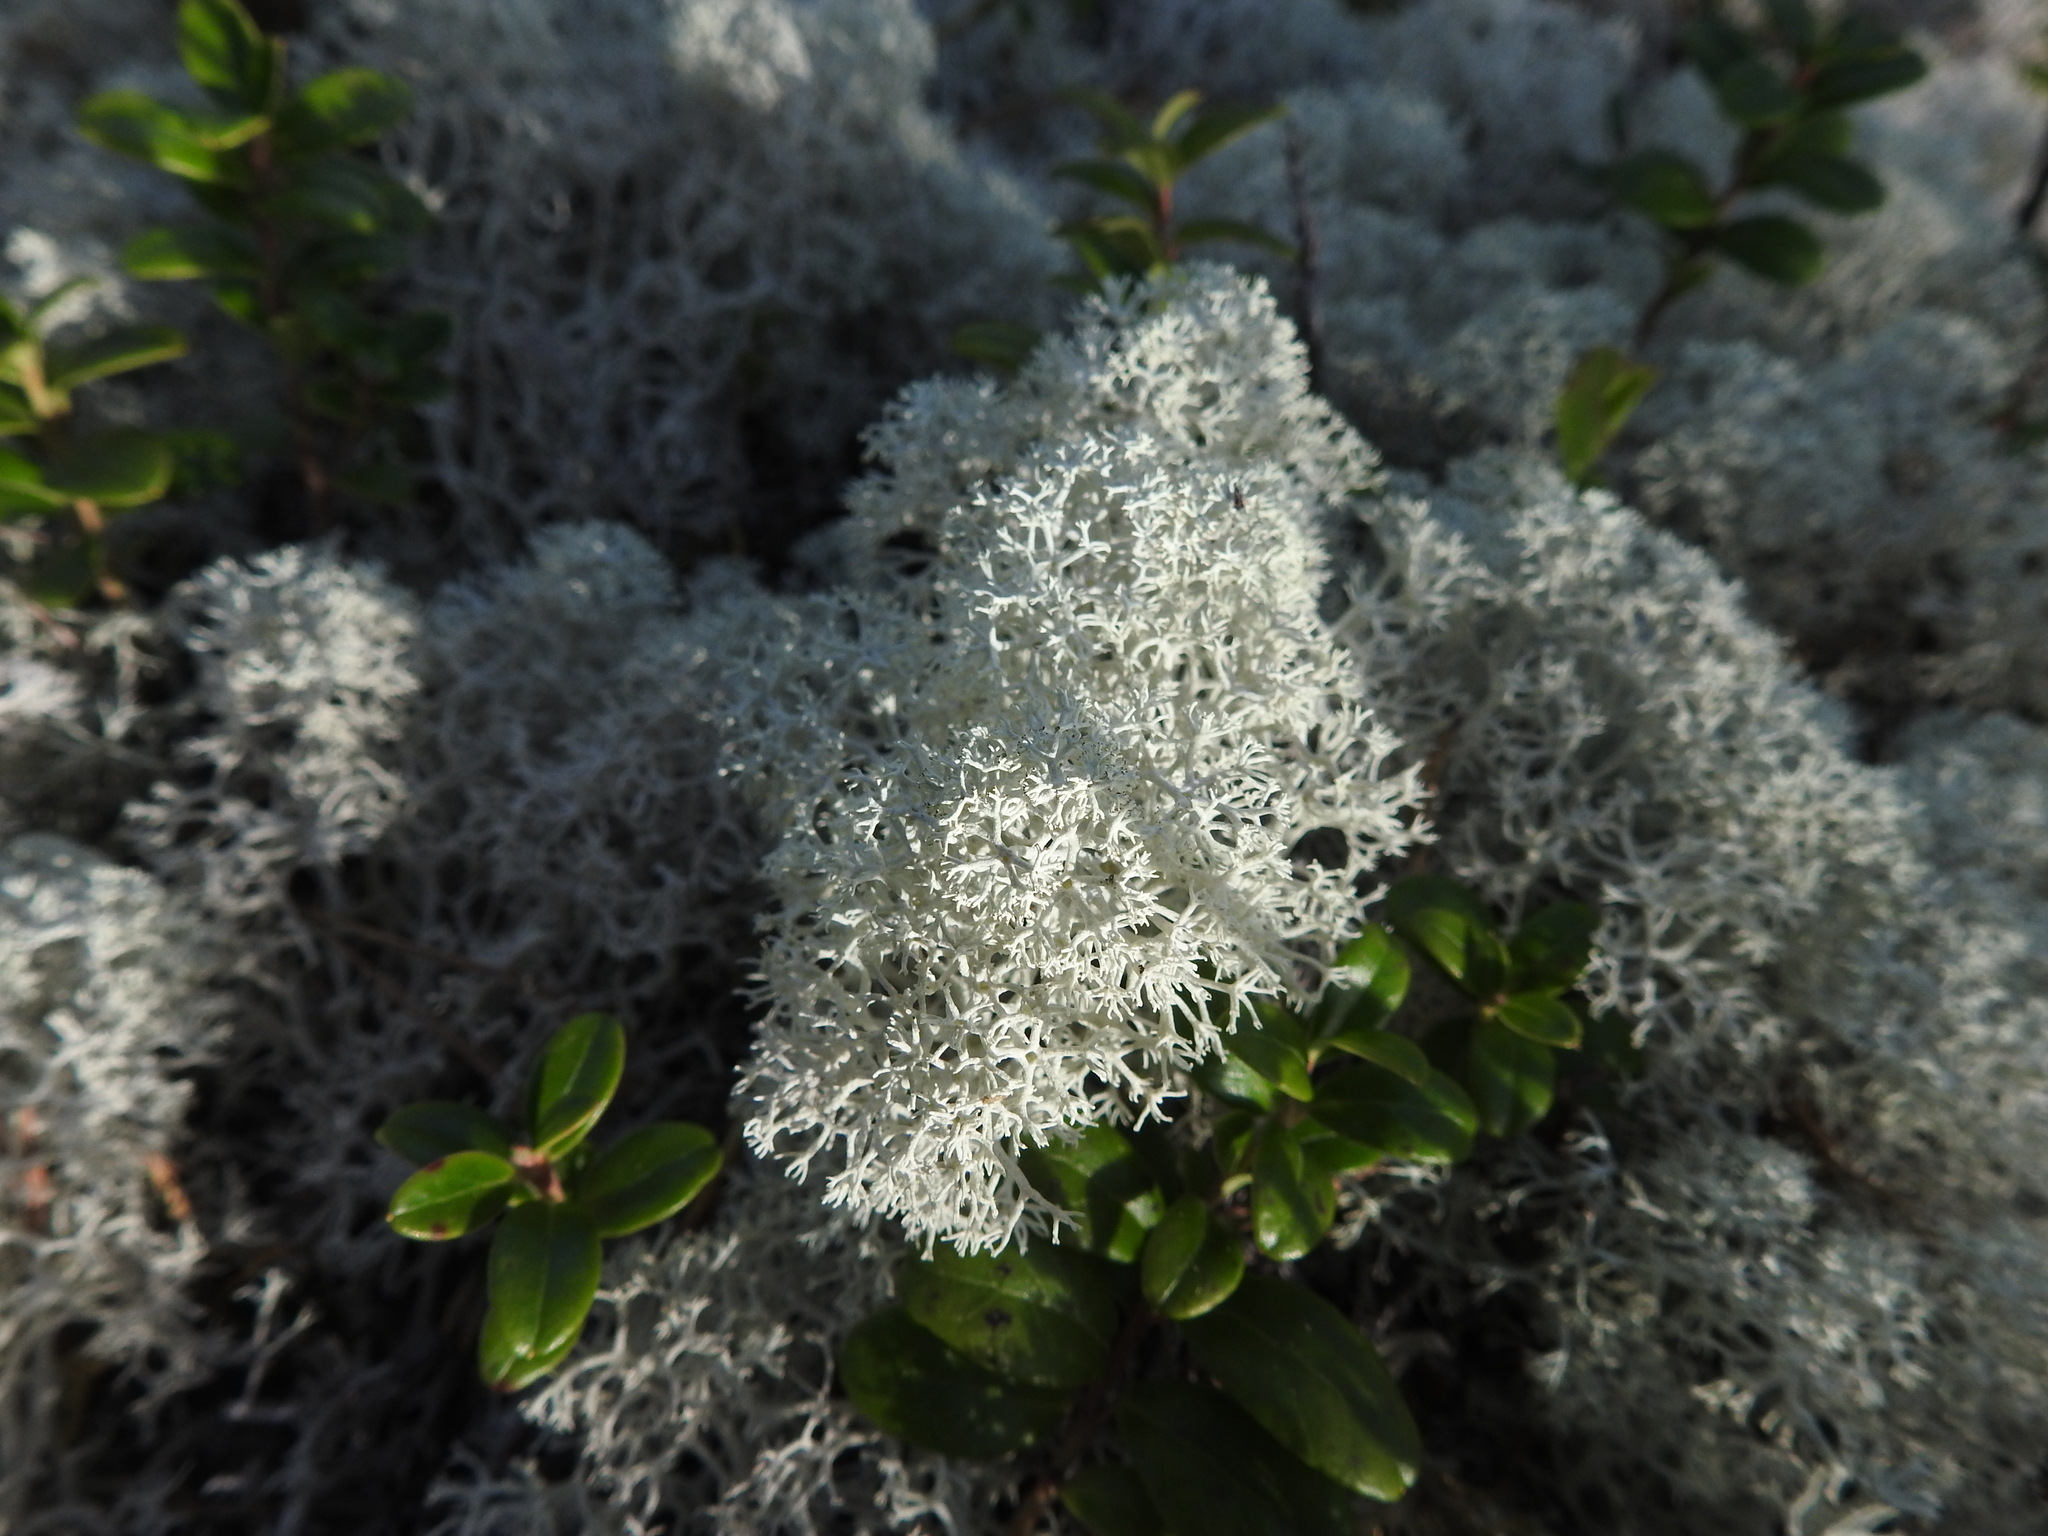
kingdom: Fungi
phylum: Ascomycota
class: Lecanoromycetes
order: Lecanorales
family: Cladoniaceae
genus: Cladonia
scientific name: Cladonia portentosa
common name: Reindeer lichen
